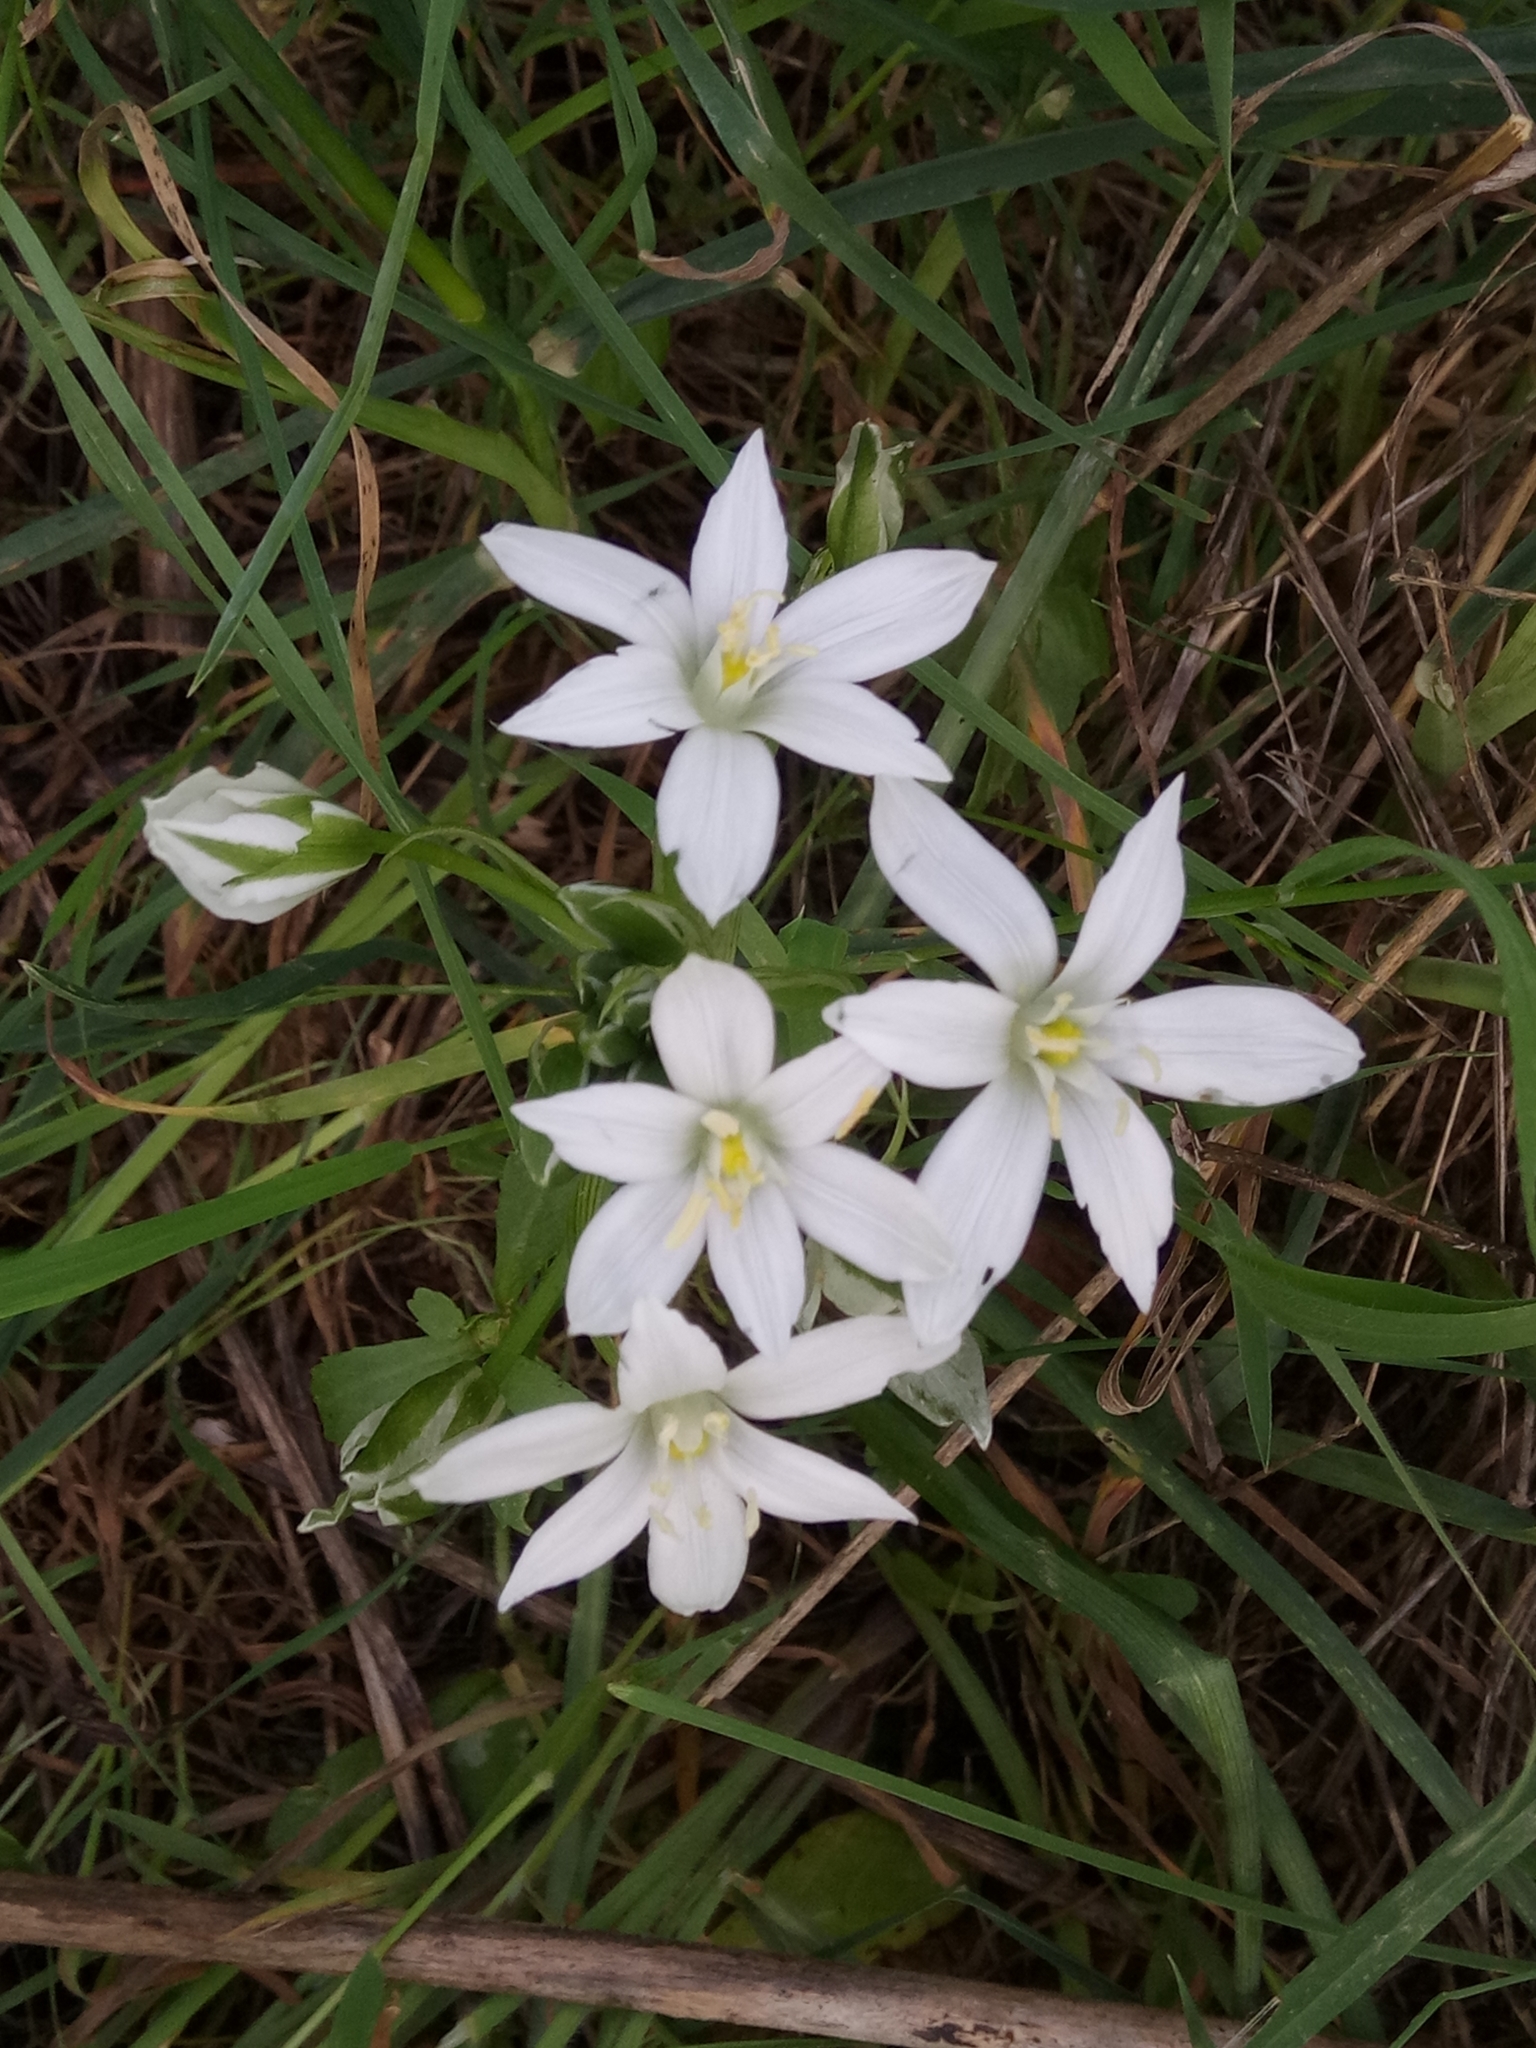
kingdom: Plantae
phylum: Tracheophyta
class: Liliopsida
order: Asparagales
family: Asparagaceae
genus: Ornithogalum
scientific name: Ornithogalum baeticum
